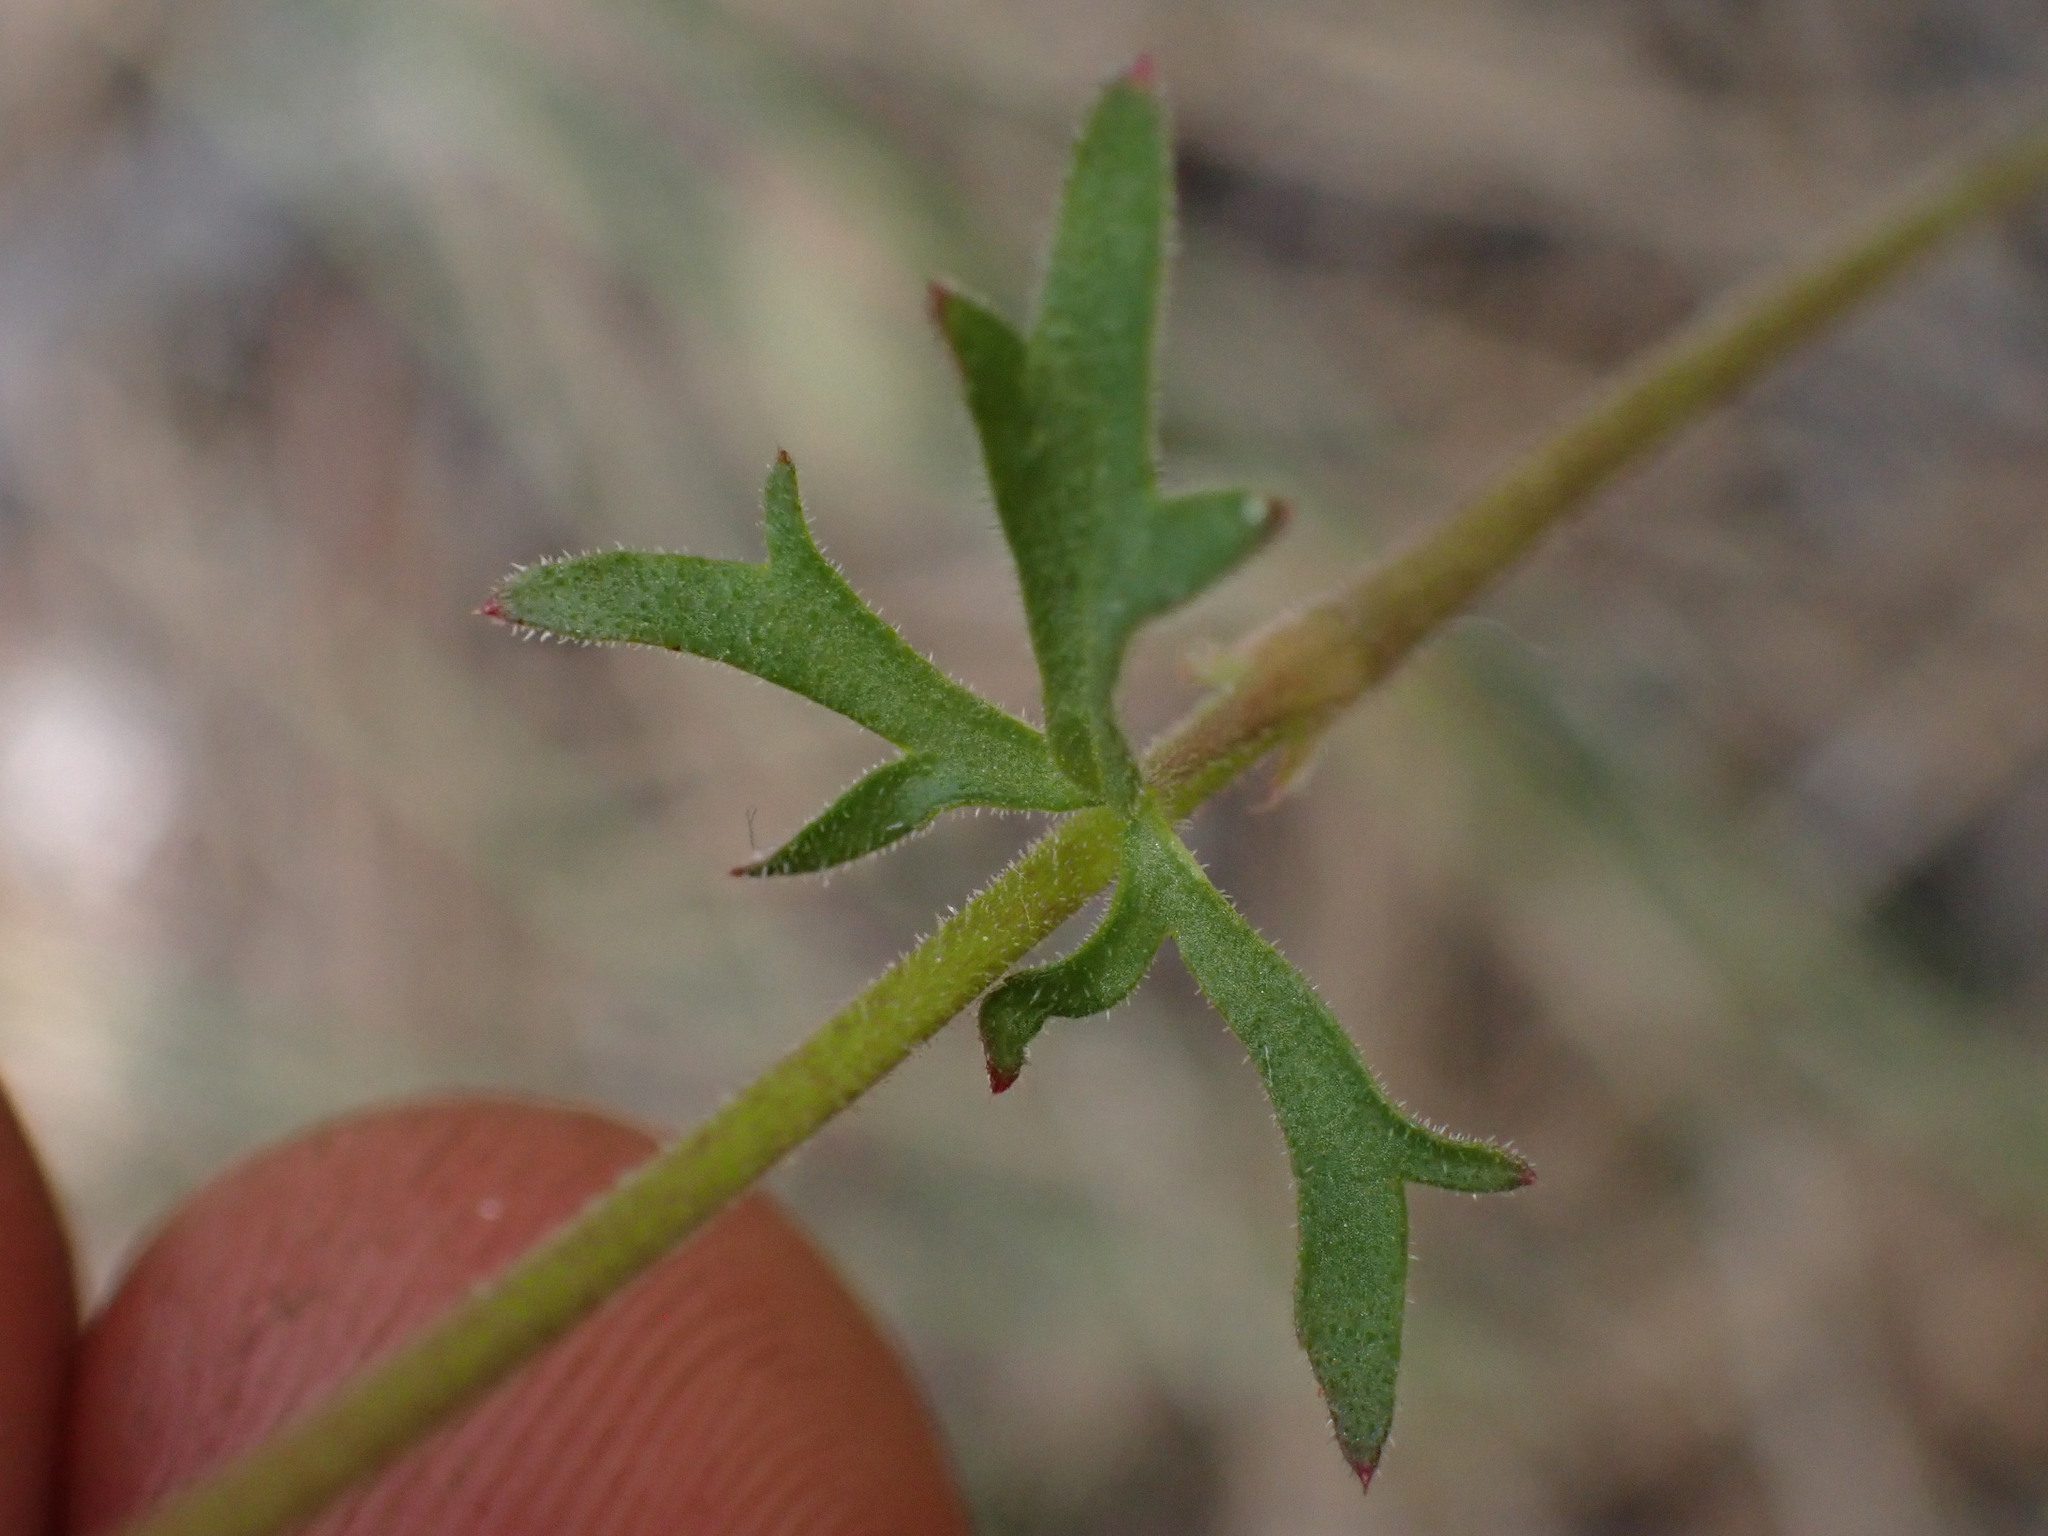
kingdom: Plantae
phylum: Tracheophyta
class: Magnoliopsida
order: Saxifragales
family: Saxifragaceae
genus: Lithophragma
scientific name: Lithophragma parviflorum
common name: Small-flowered fringe-cup
